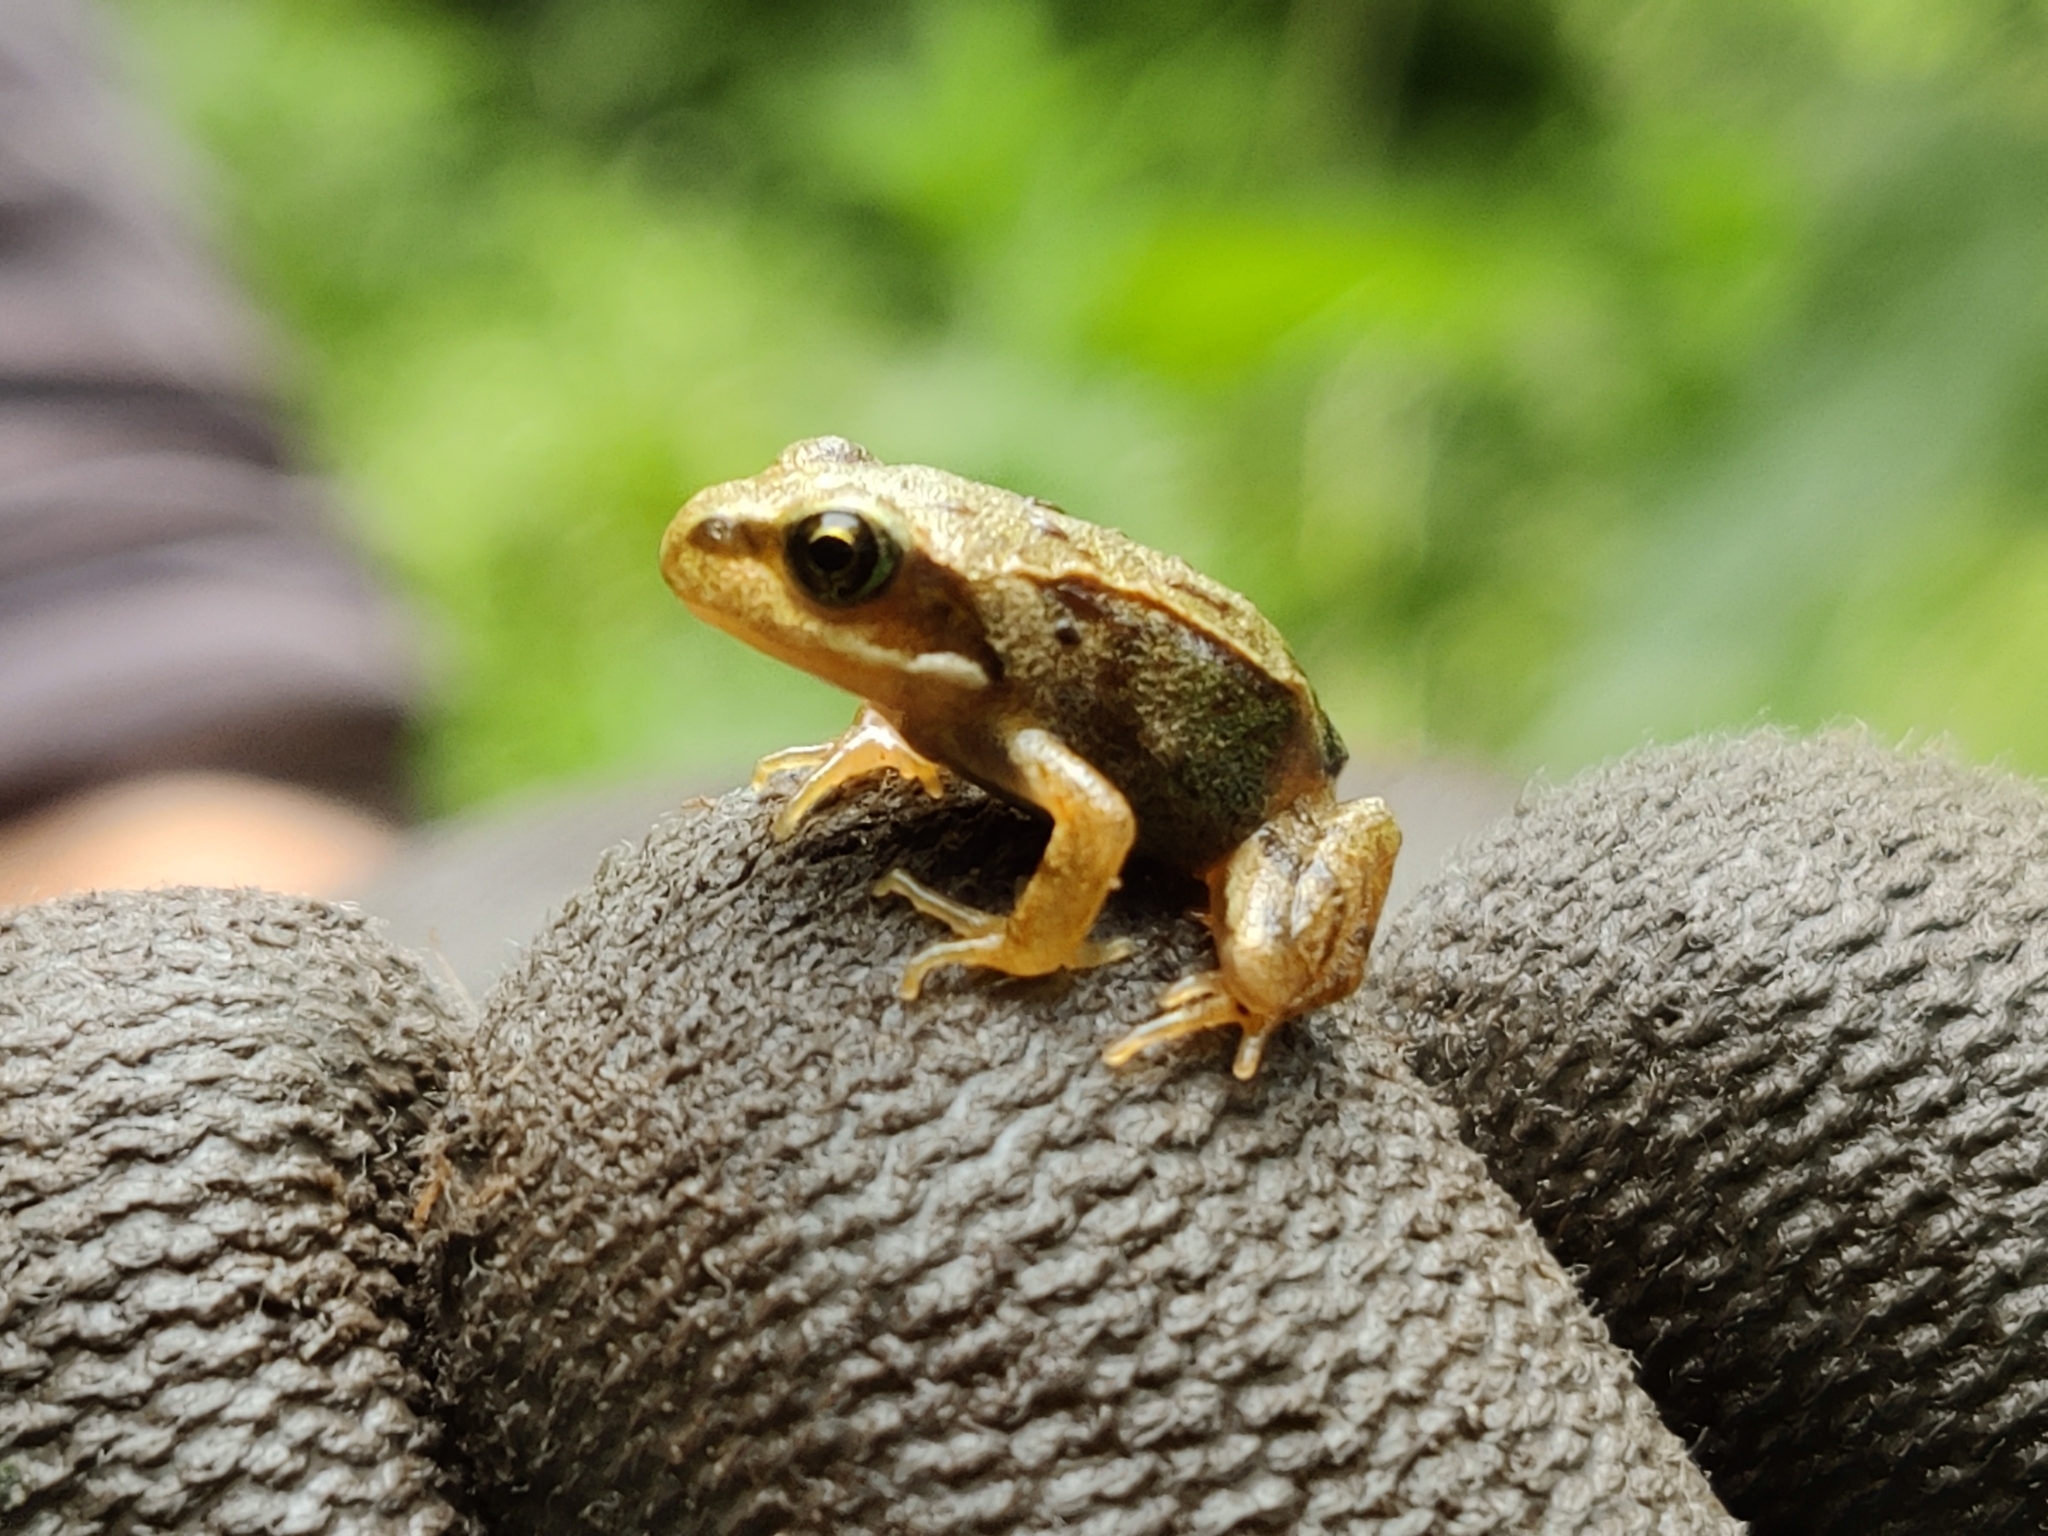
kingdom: Animalia
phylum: Chordata
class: Amphibia
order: Anura
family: Ranidae
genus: Rana
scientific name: Rana temporaria
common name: Common frog
